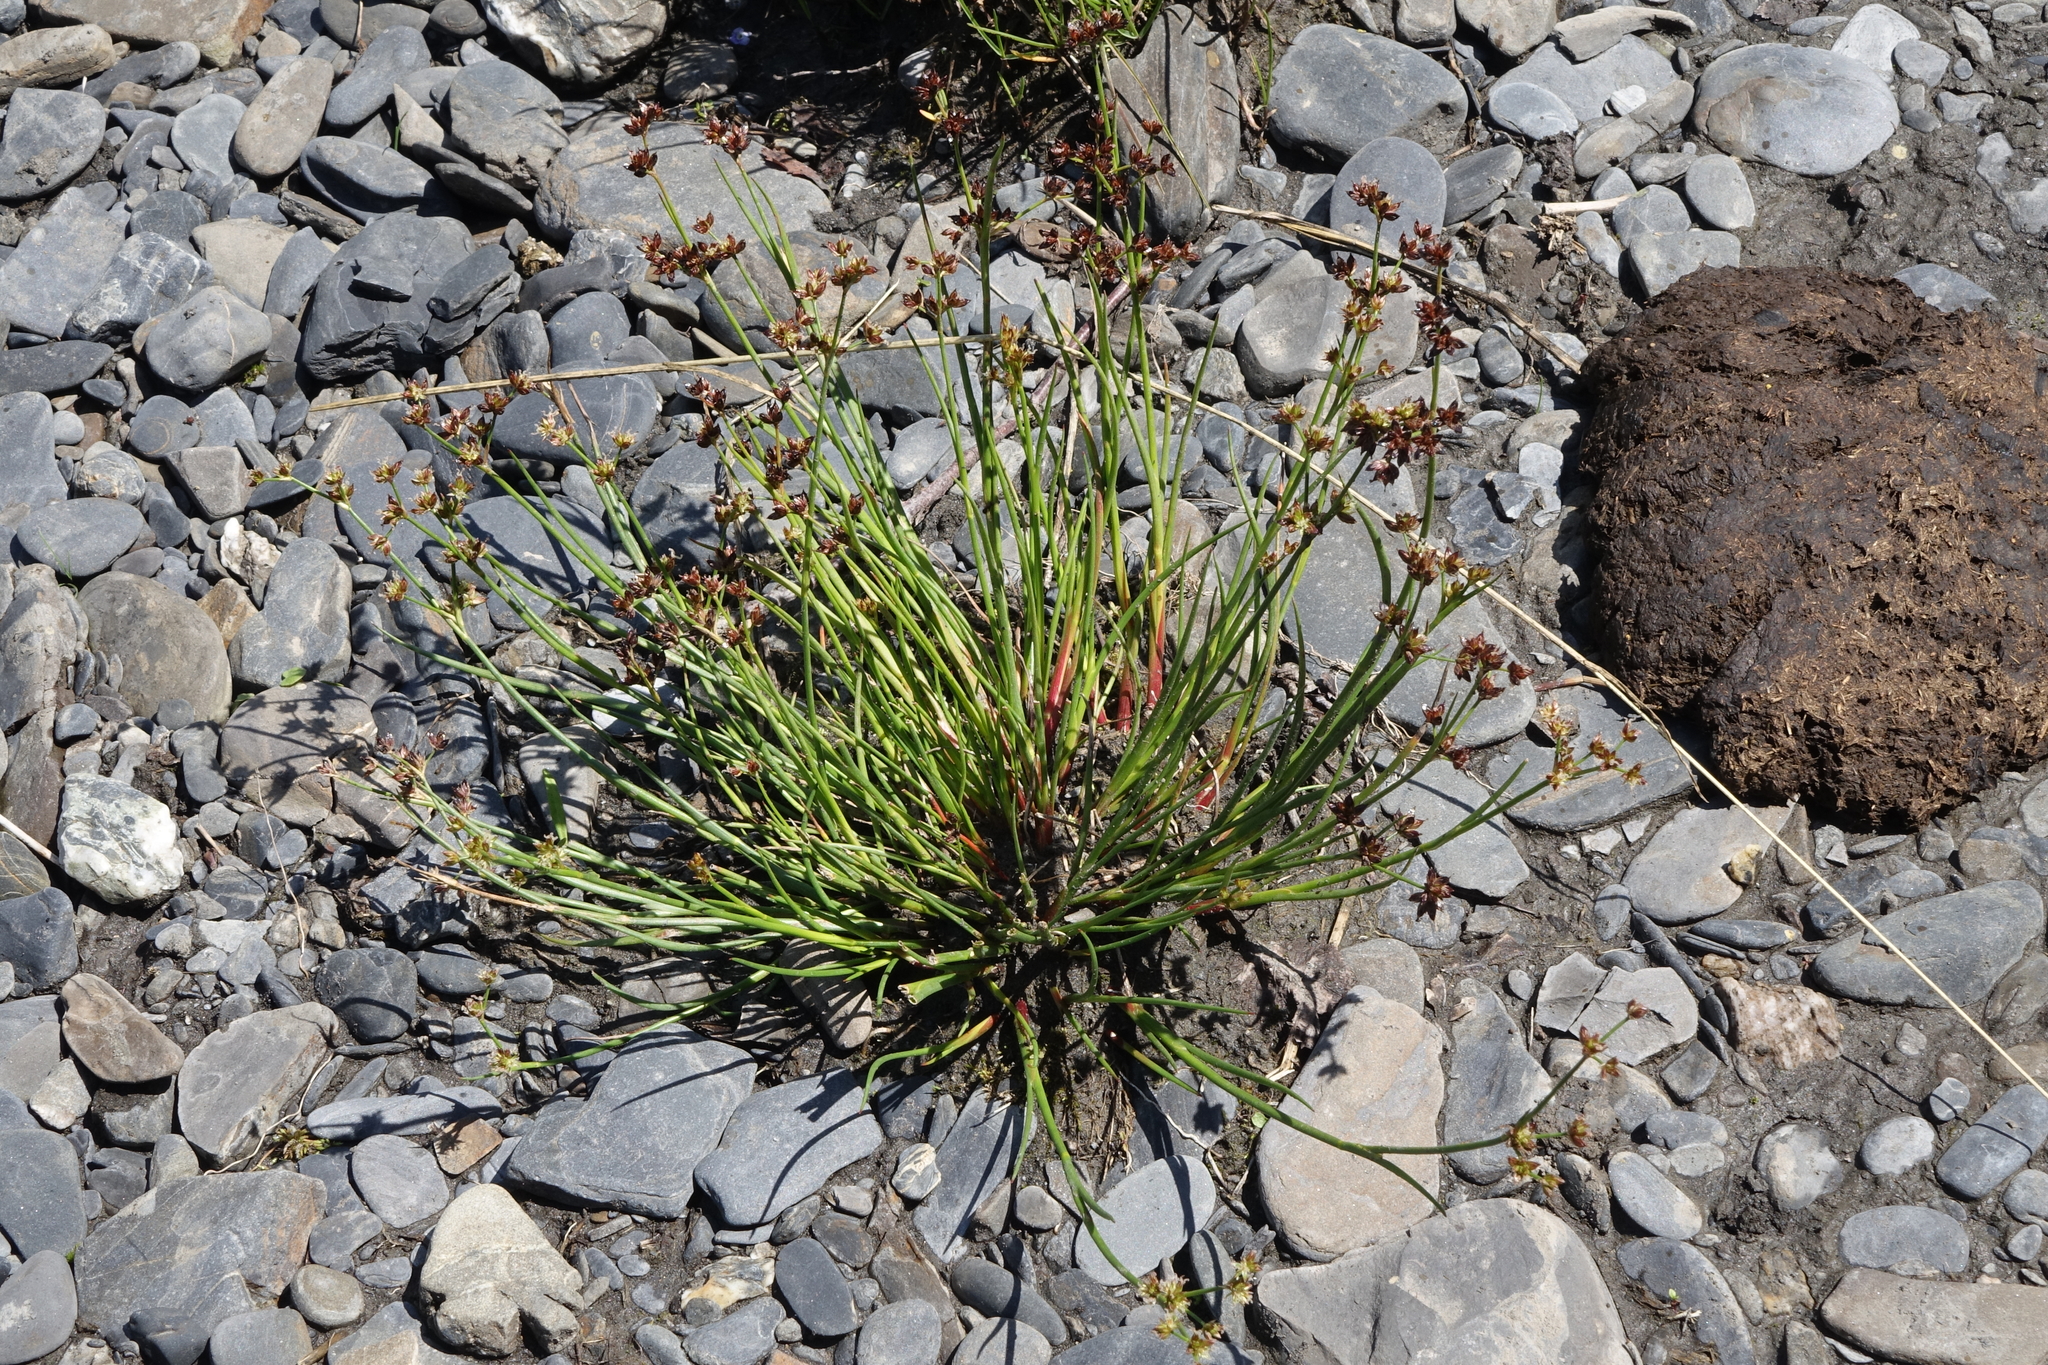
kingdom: Plantae
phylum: Tracheophyta
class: Liliopsida
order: Poales
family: Juncaceae
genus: Juncus
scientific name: Juncus articulatus
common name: Jointed rush
